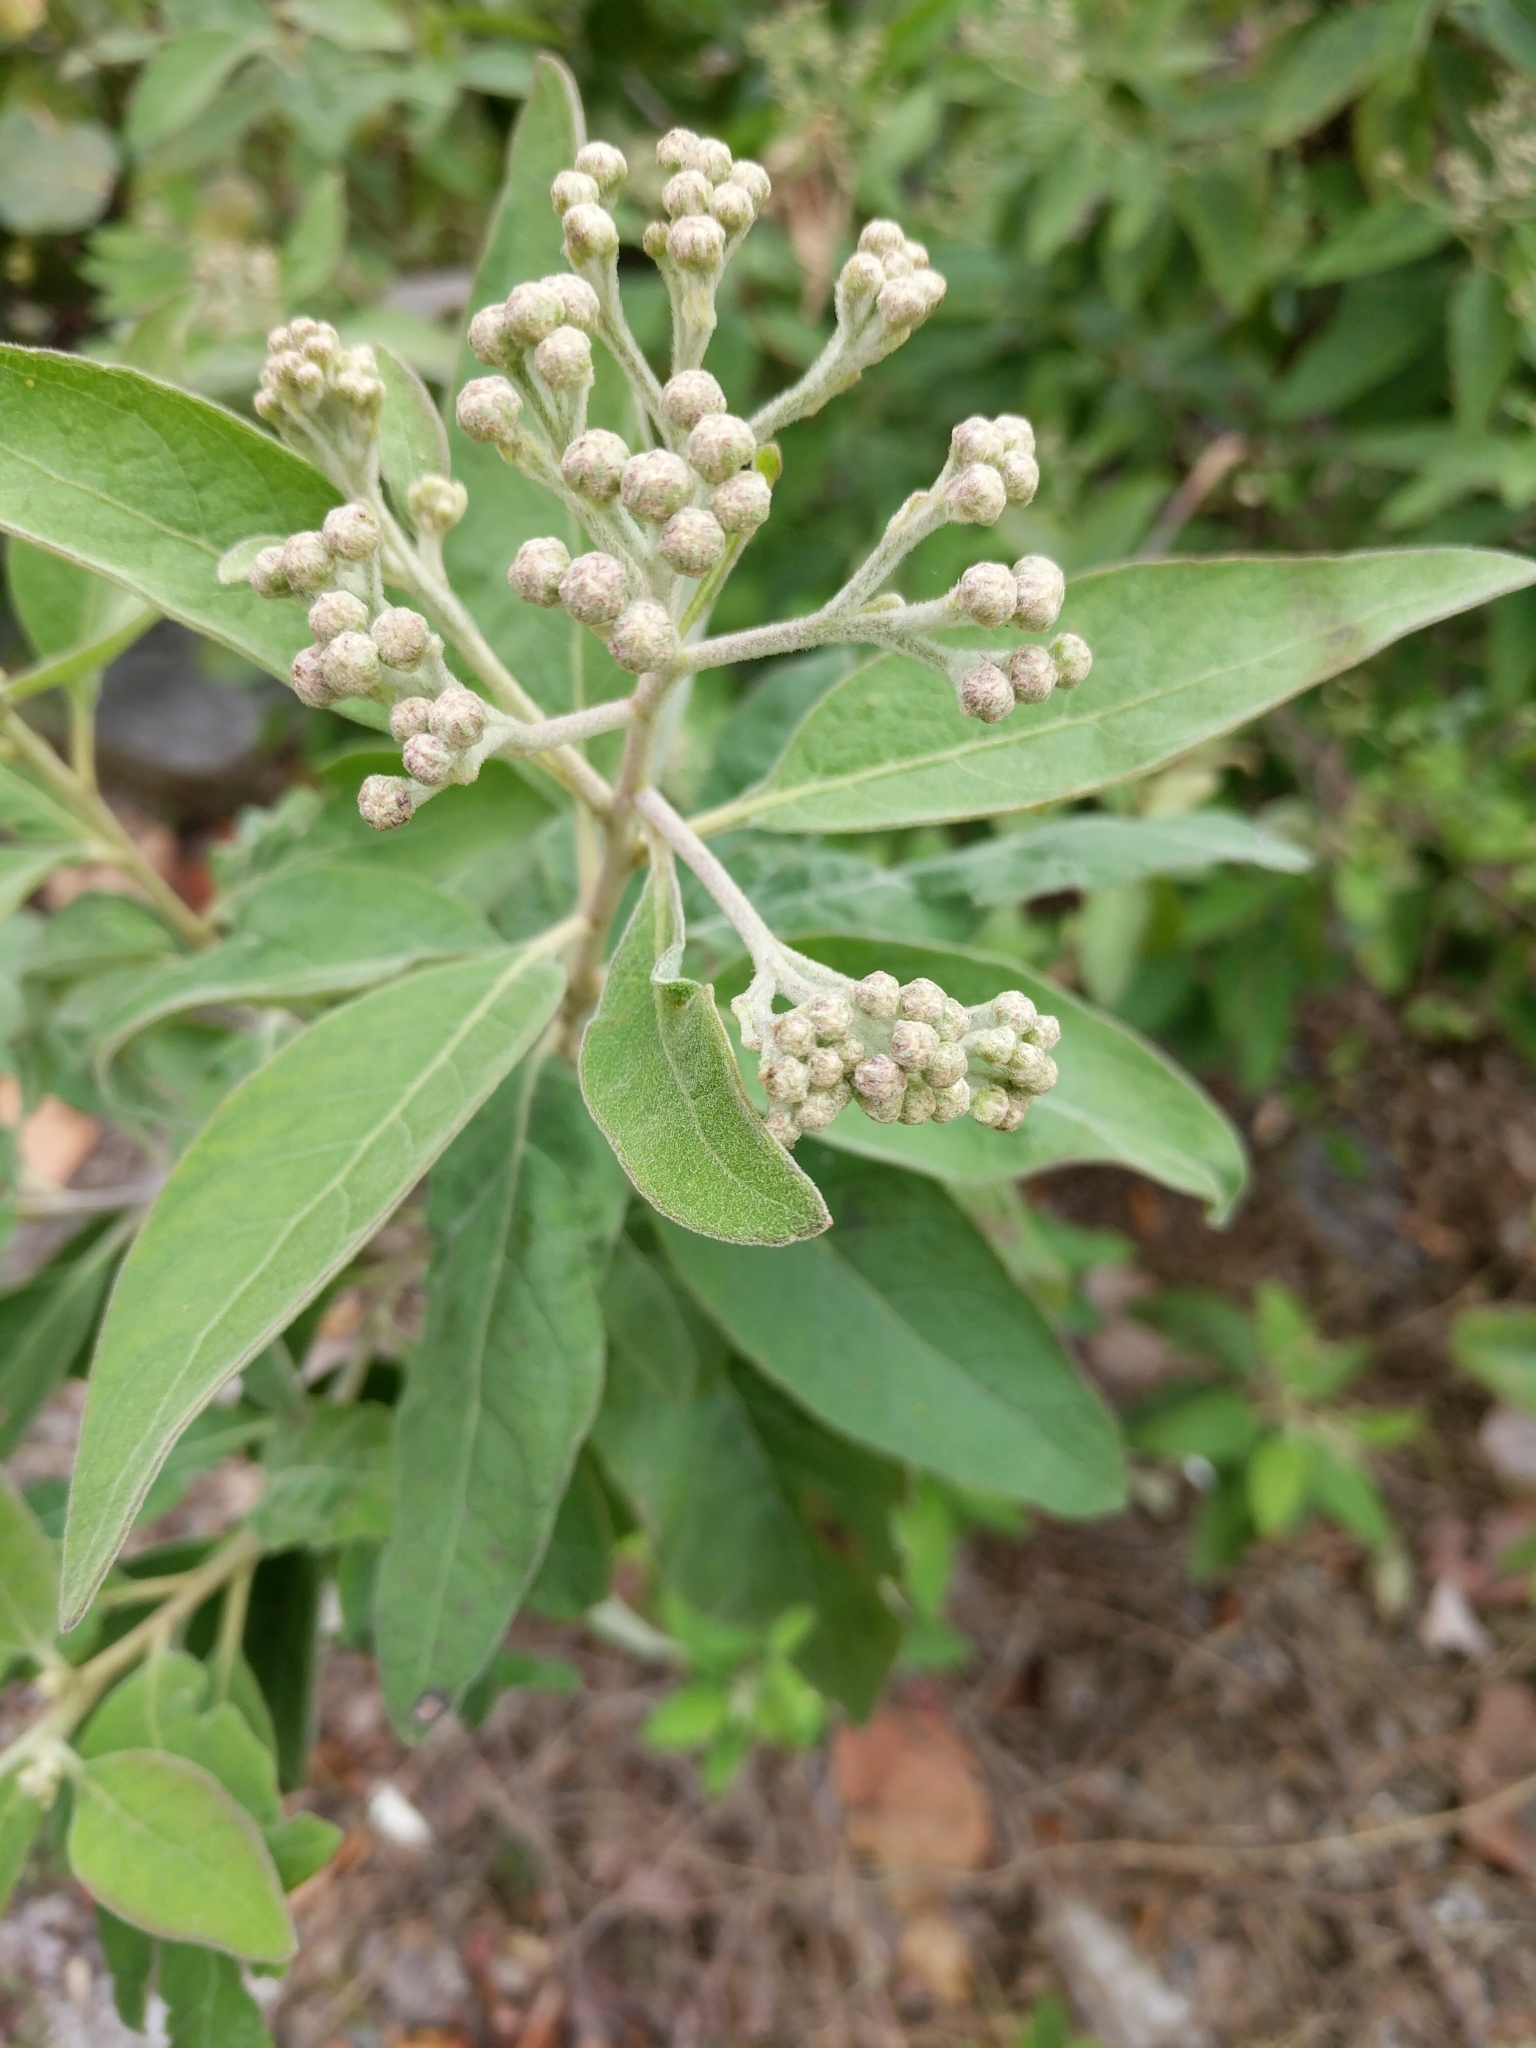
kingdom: Plantae
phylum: Tracheophyta
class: Magnoliopsida
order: Asterales
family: Asteraceae
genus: Pluchea
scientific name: Pluchea carolinensis
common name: Marsh fleabane
